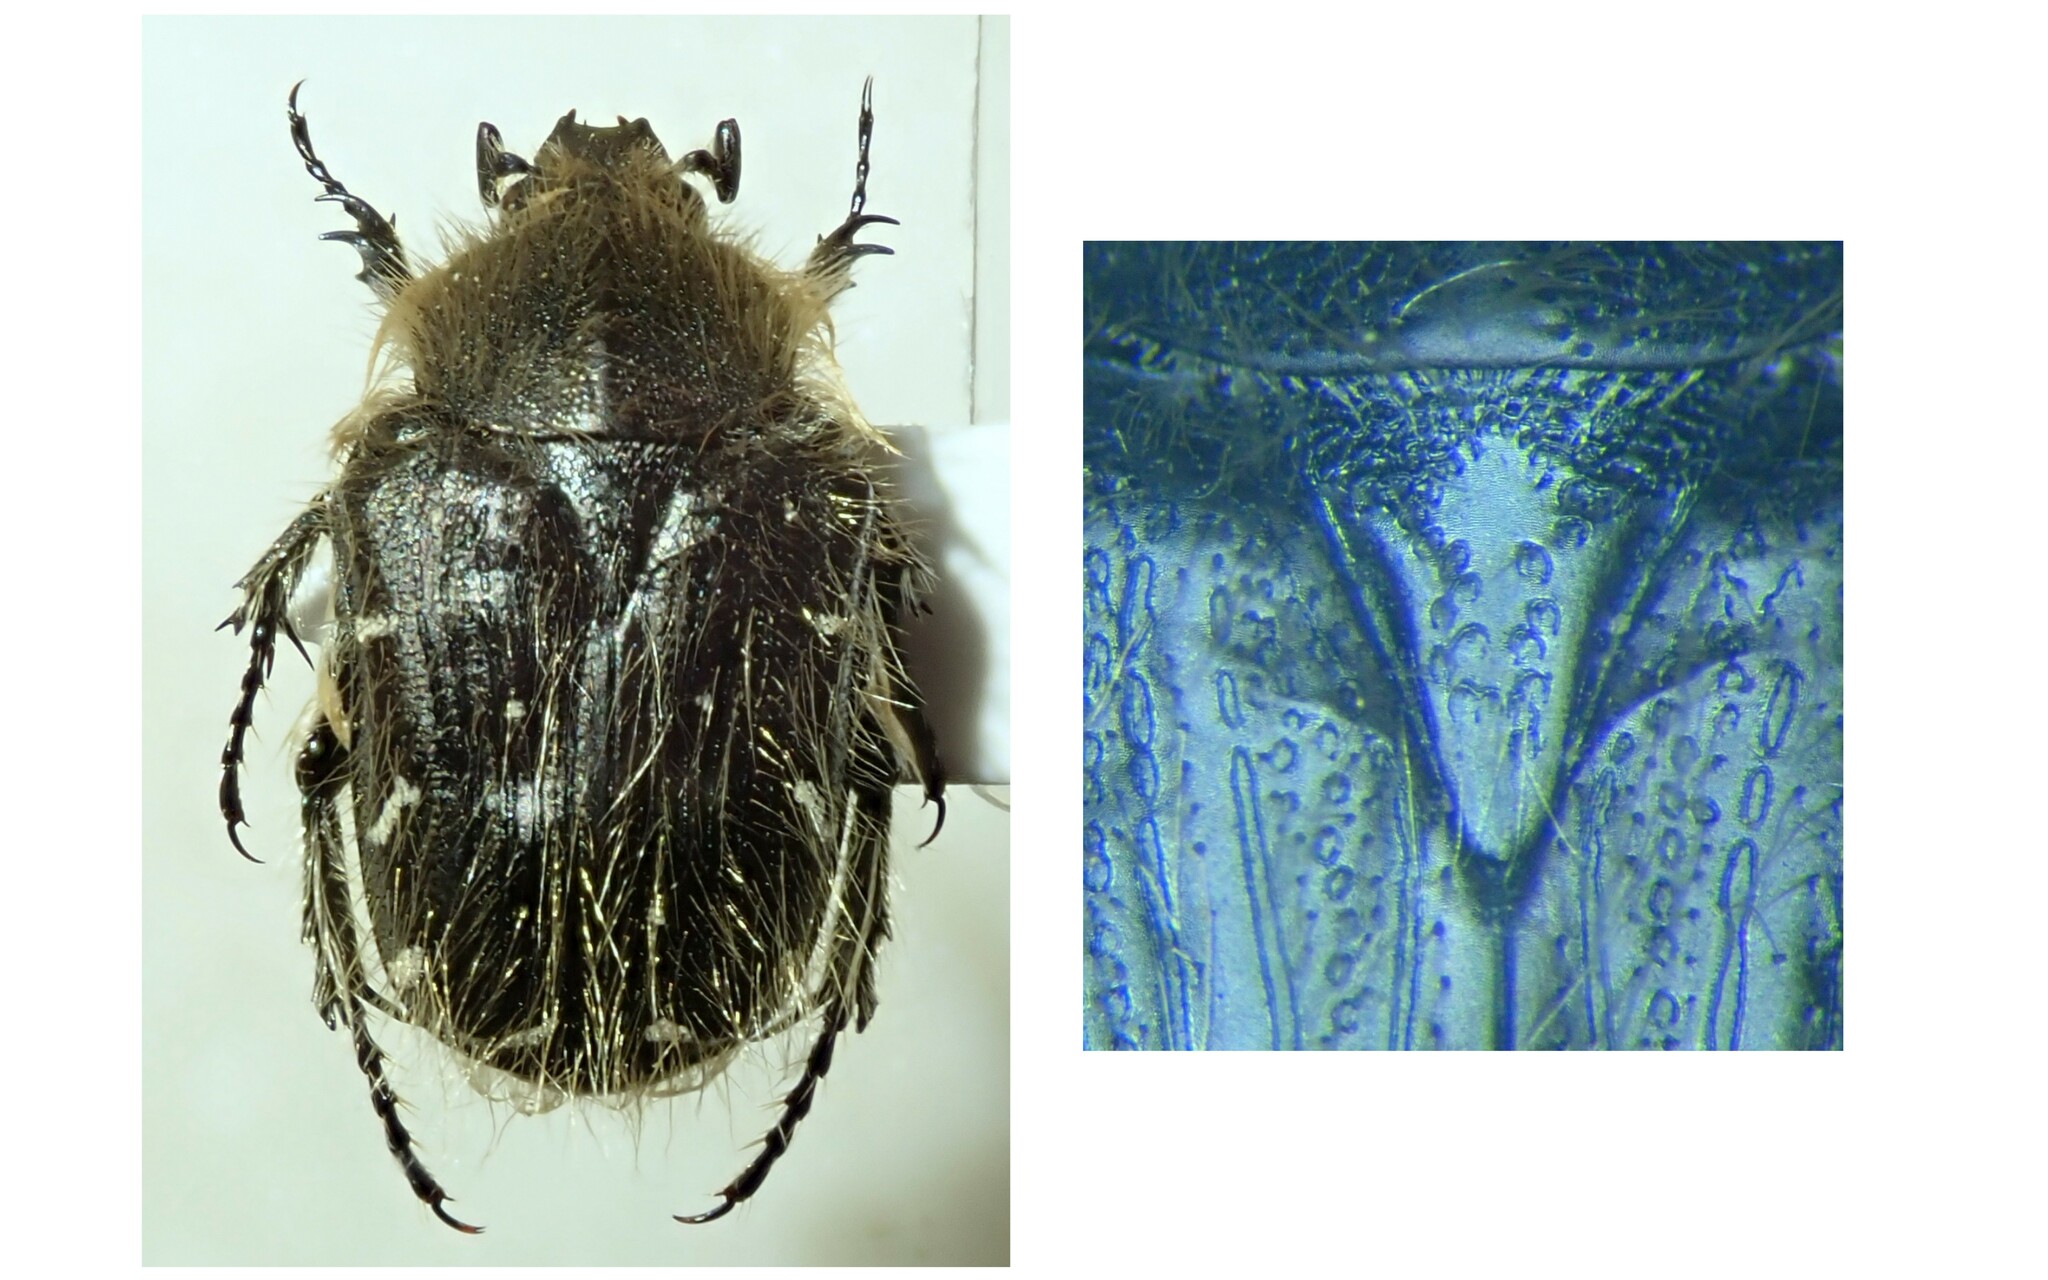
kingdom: Animalia
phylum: Arthropoda
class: Insecta
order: Coleoptera
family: Scarabaeidae
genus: Tropinota
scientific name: Tropinota hirta
